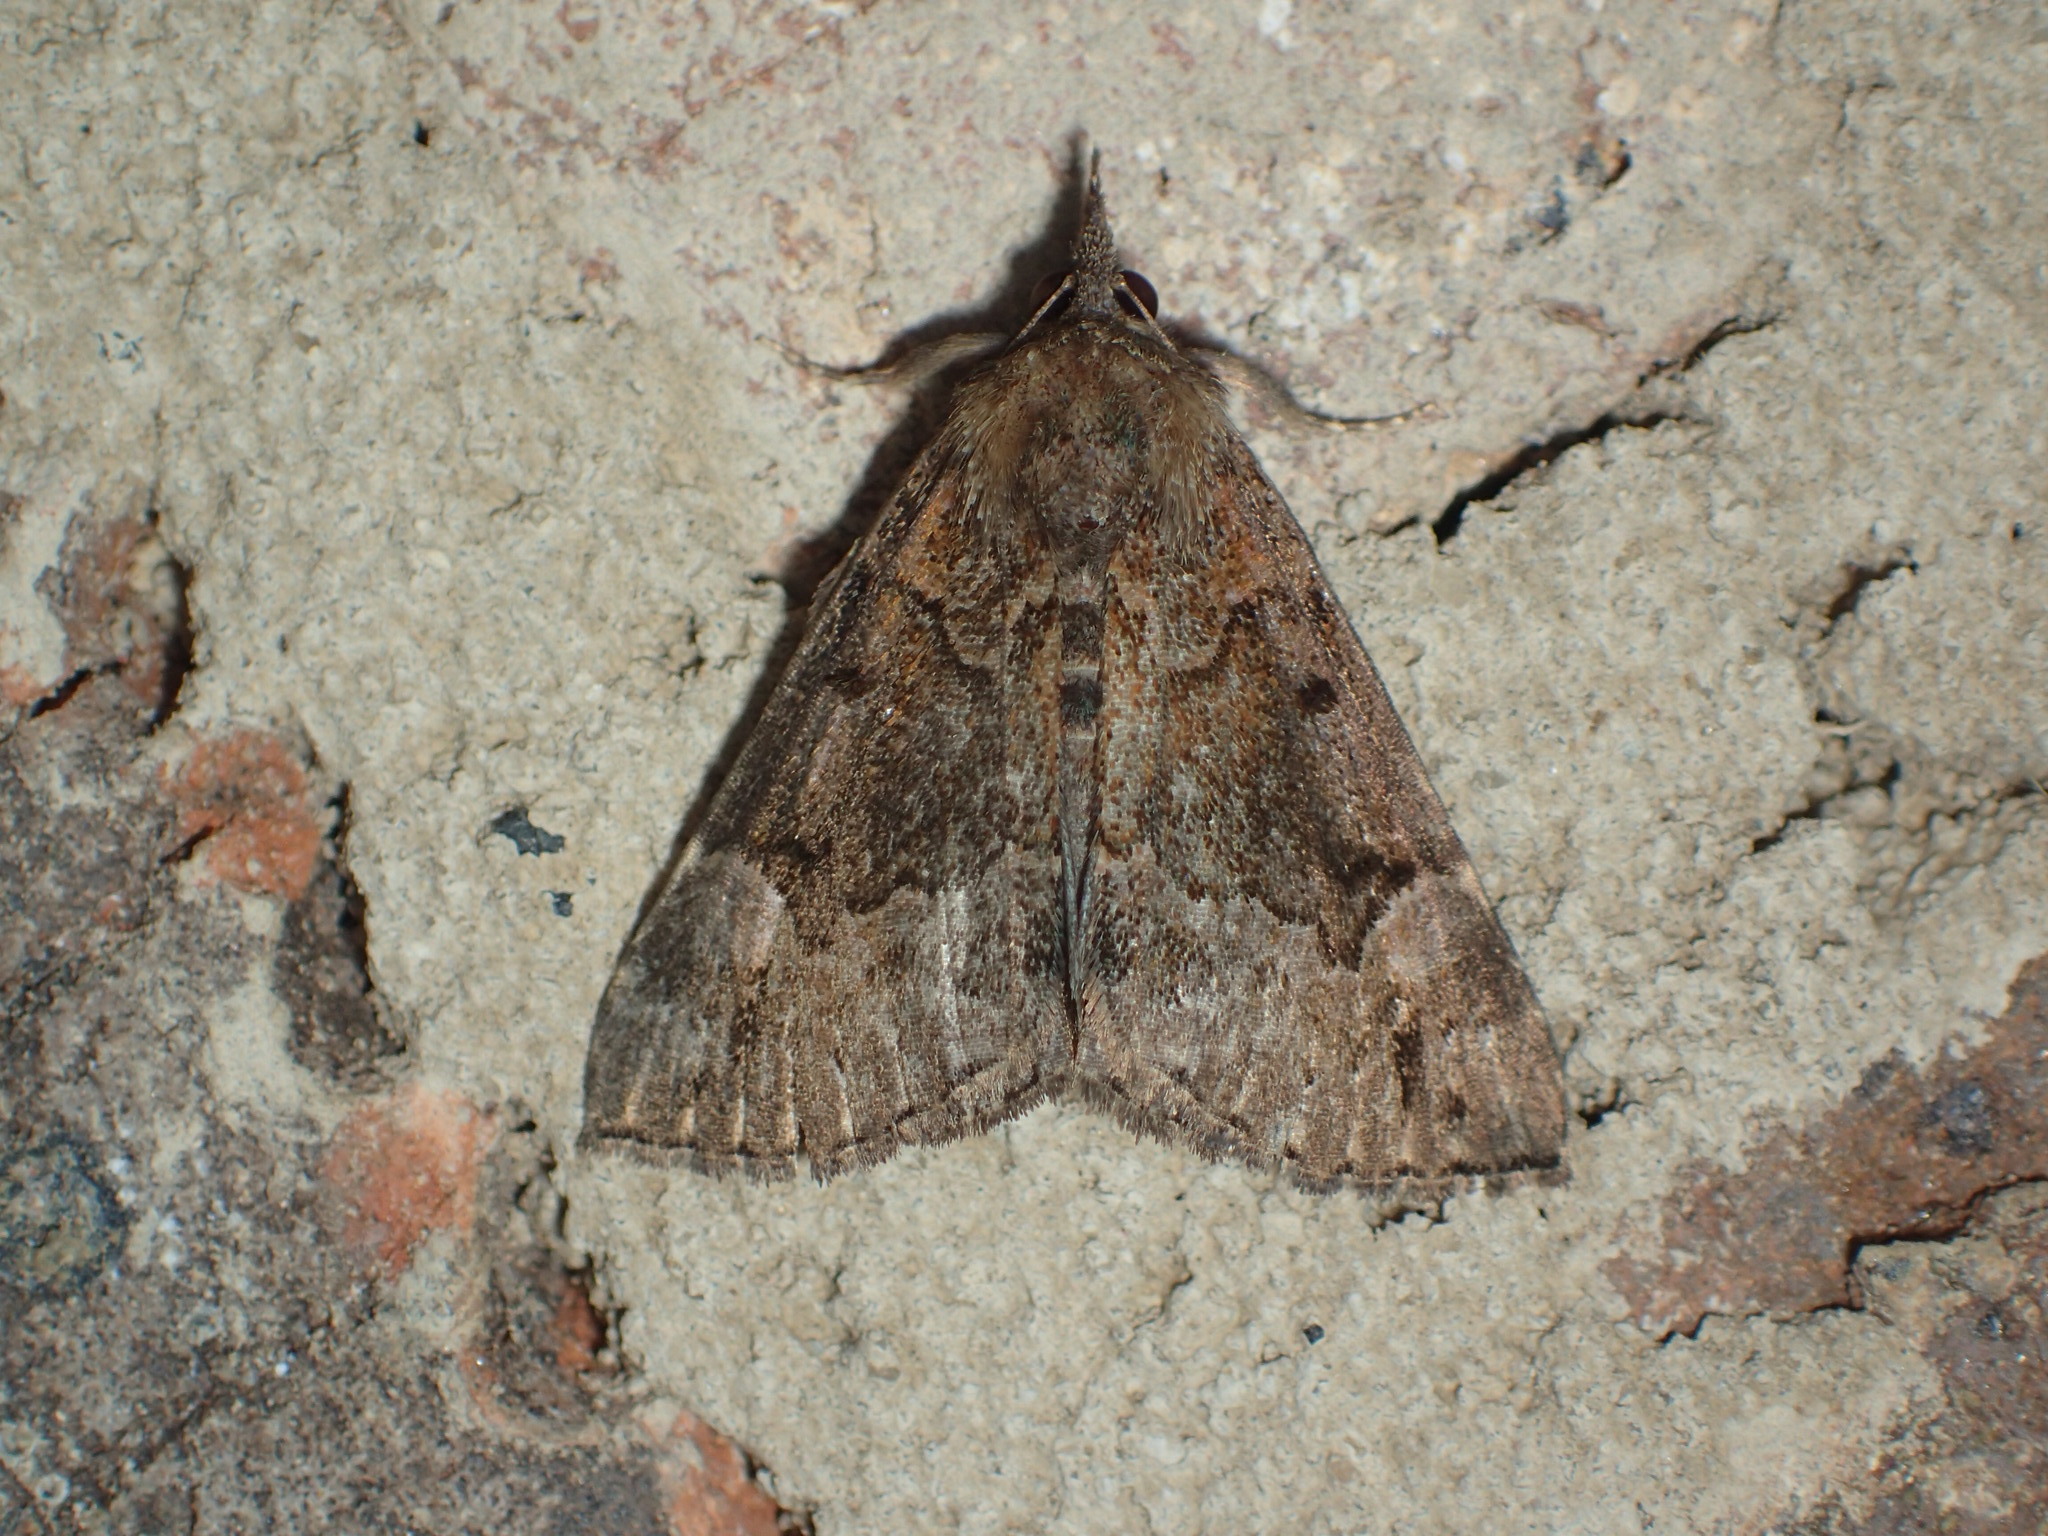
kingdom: Animalia
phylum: Arthropoda
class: Insecta
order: Lepidoptera
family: Erebidae
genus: Hypena
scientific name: Hypena palparia
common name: Mottled bomolocha moth
